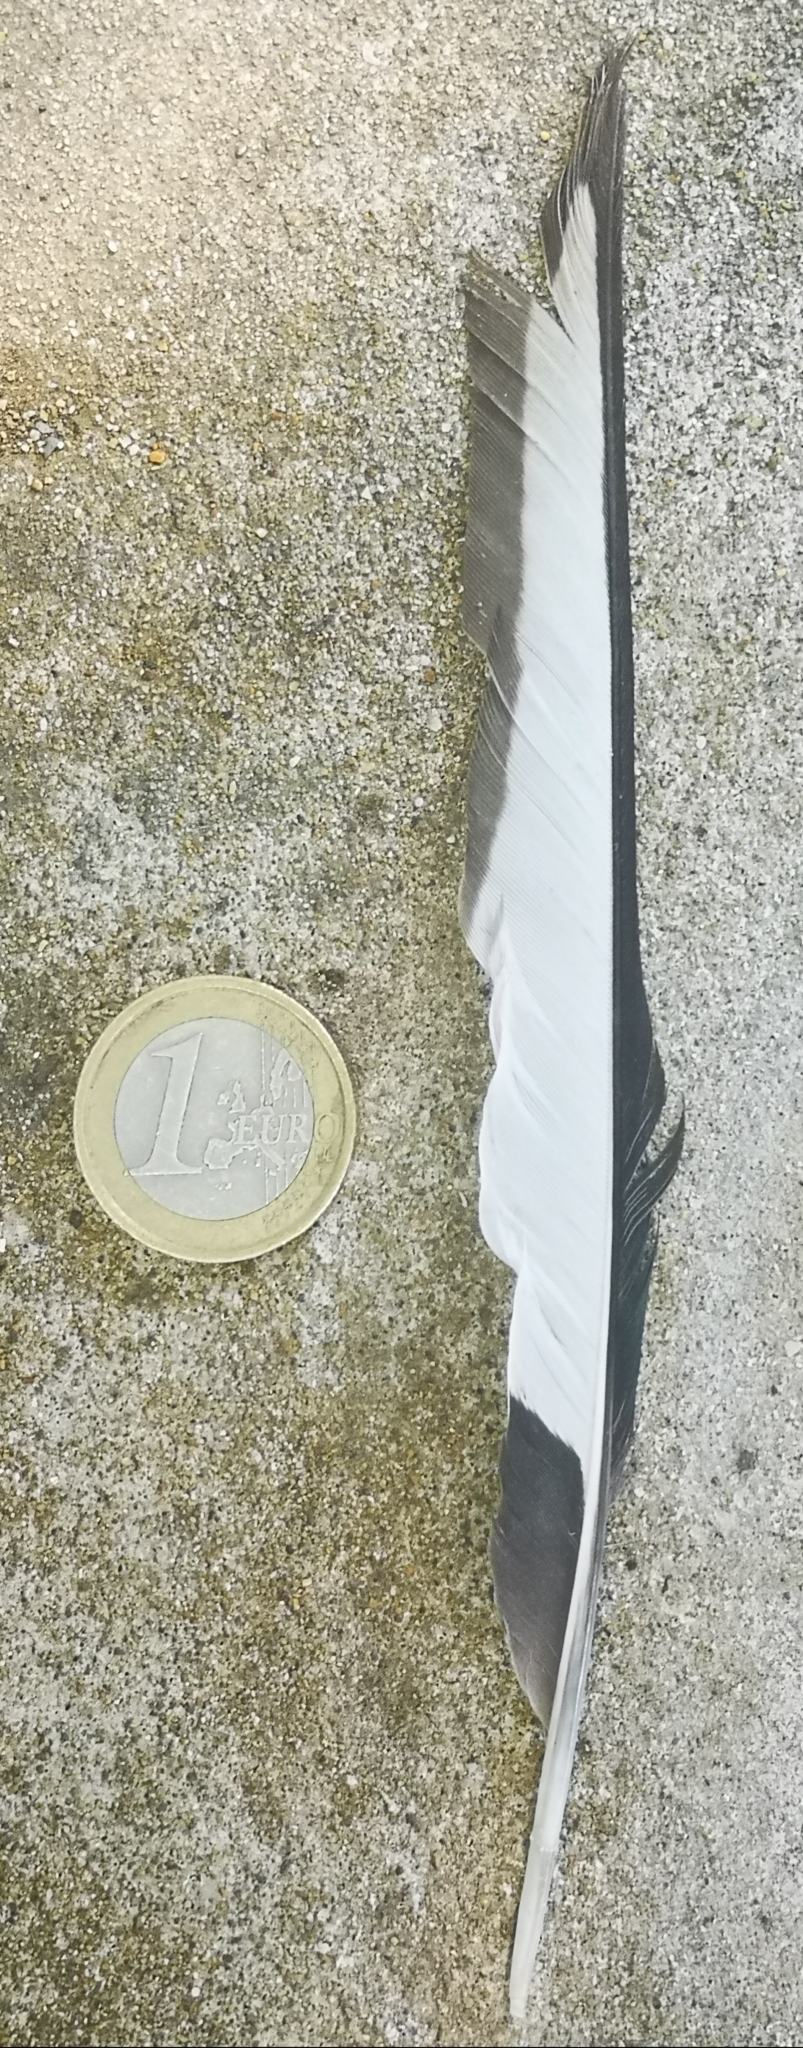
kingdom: Animalia
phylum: Chordata
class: Aves
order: Passeriformes
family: Corvidae
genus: Pica
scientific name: Pica pica
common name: Eurasian magpie
